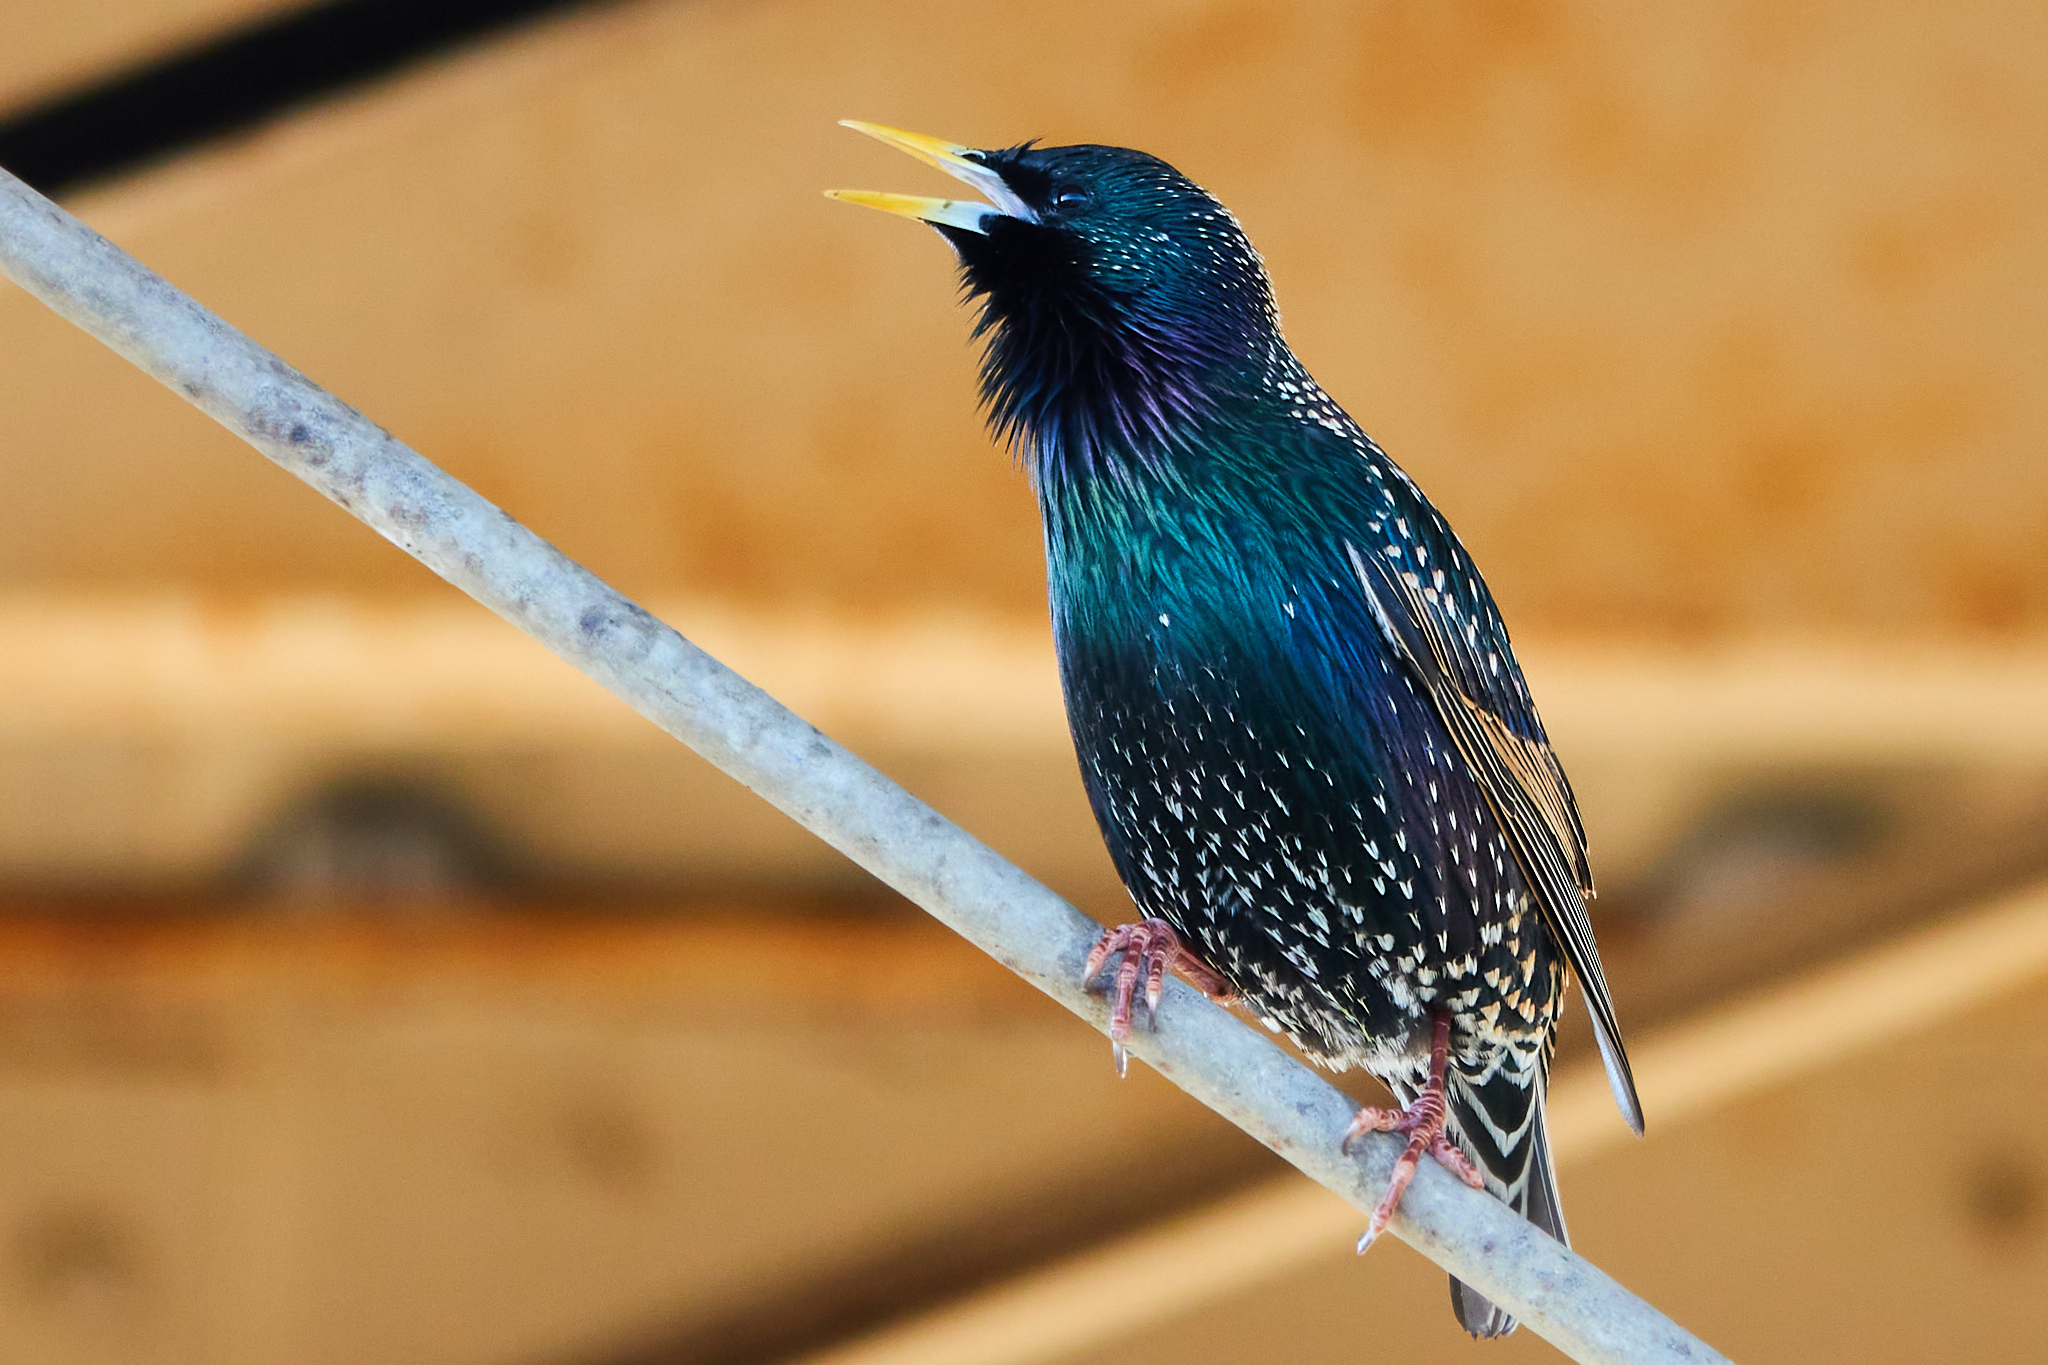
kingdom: Animalia
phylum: Chordata
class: Aves
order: Passeriformes
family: Sturnidae
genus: Sturnus
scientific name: Sturnus vulgaris
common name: Common starling
